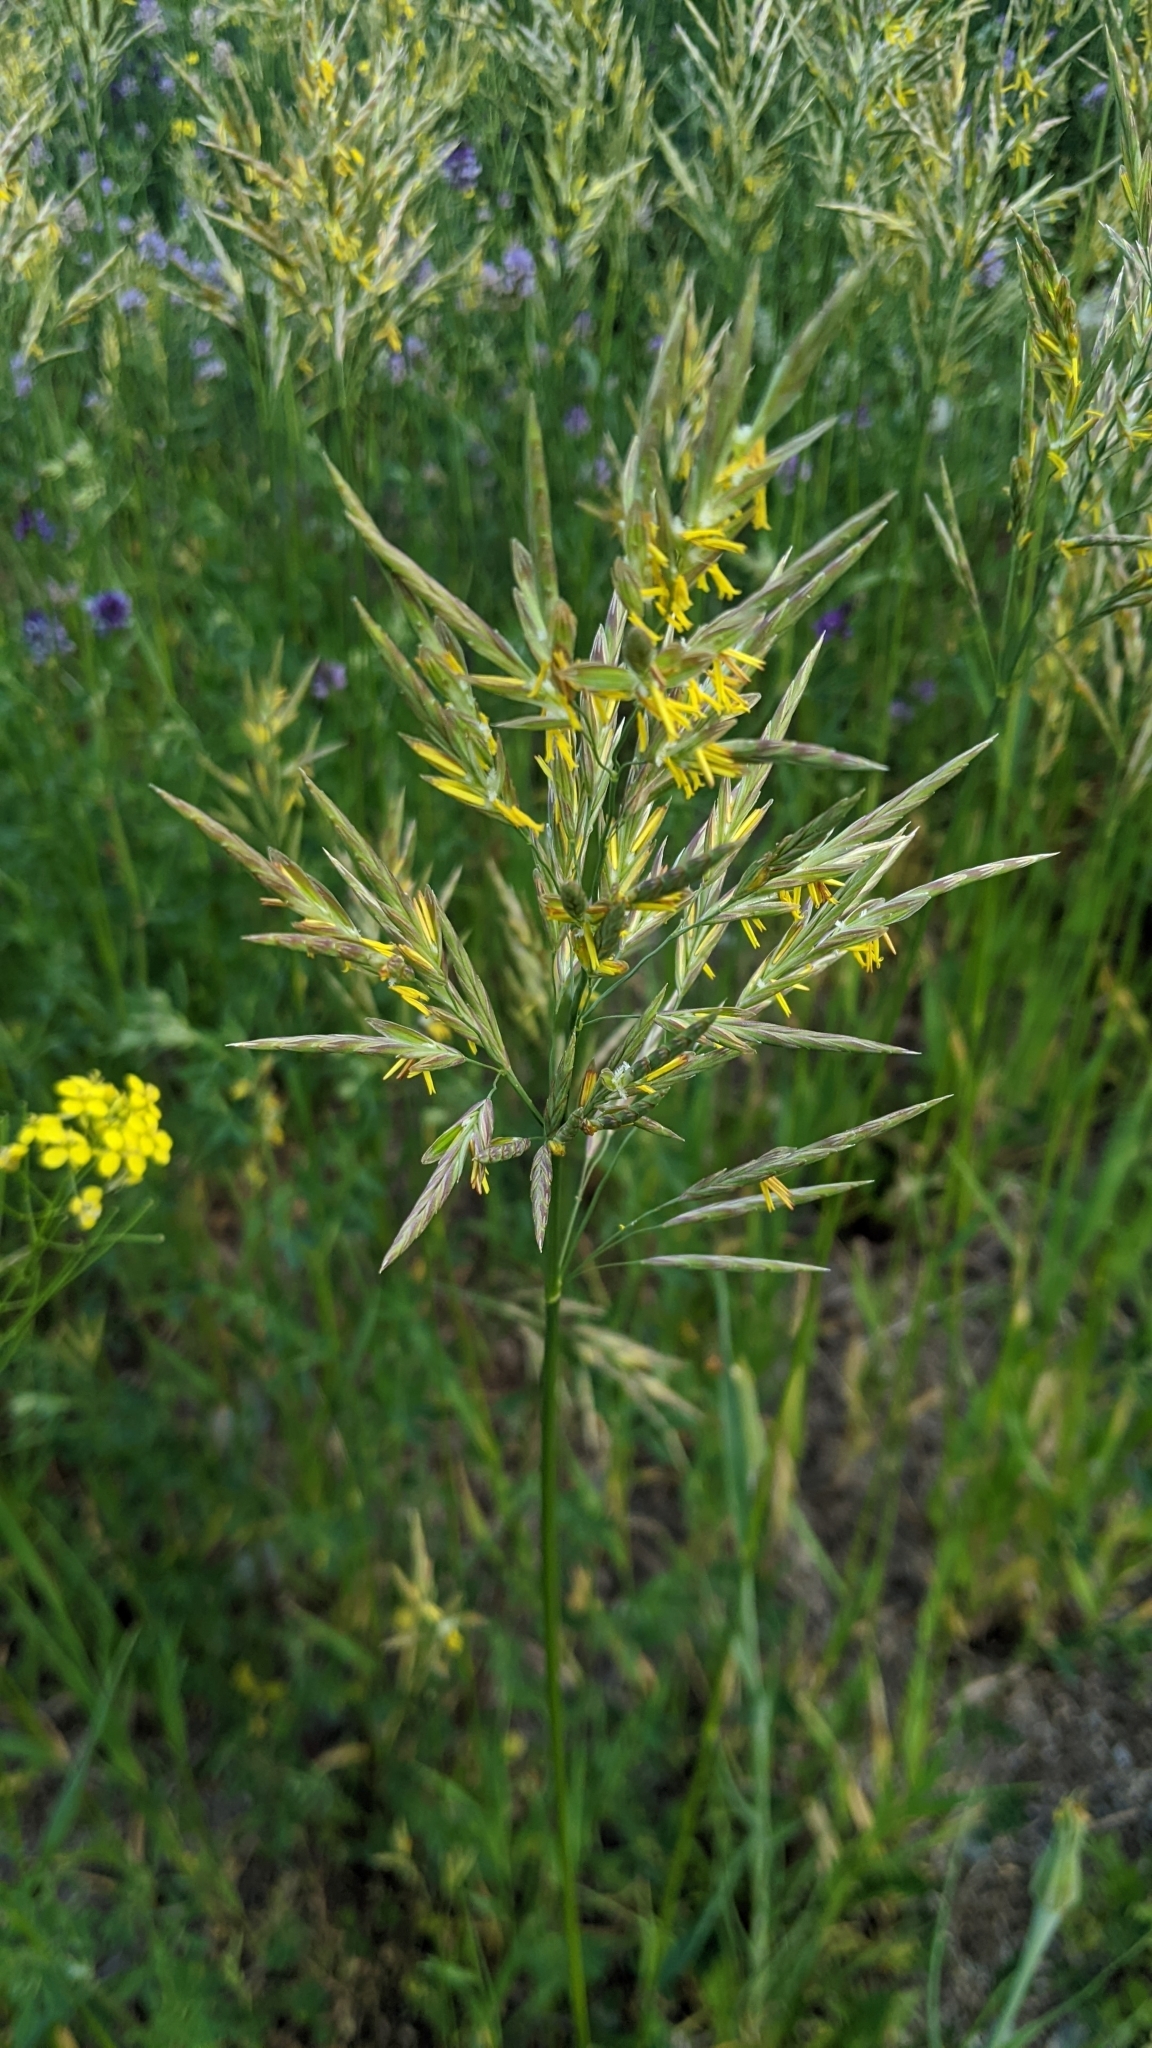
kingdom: Plantae
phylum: Tracheophyta
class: Liliopsida
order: Poales
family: Poaceae
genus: Bromus
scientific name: Bromus inermis
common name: Smooth brome
